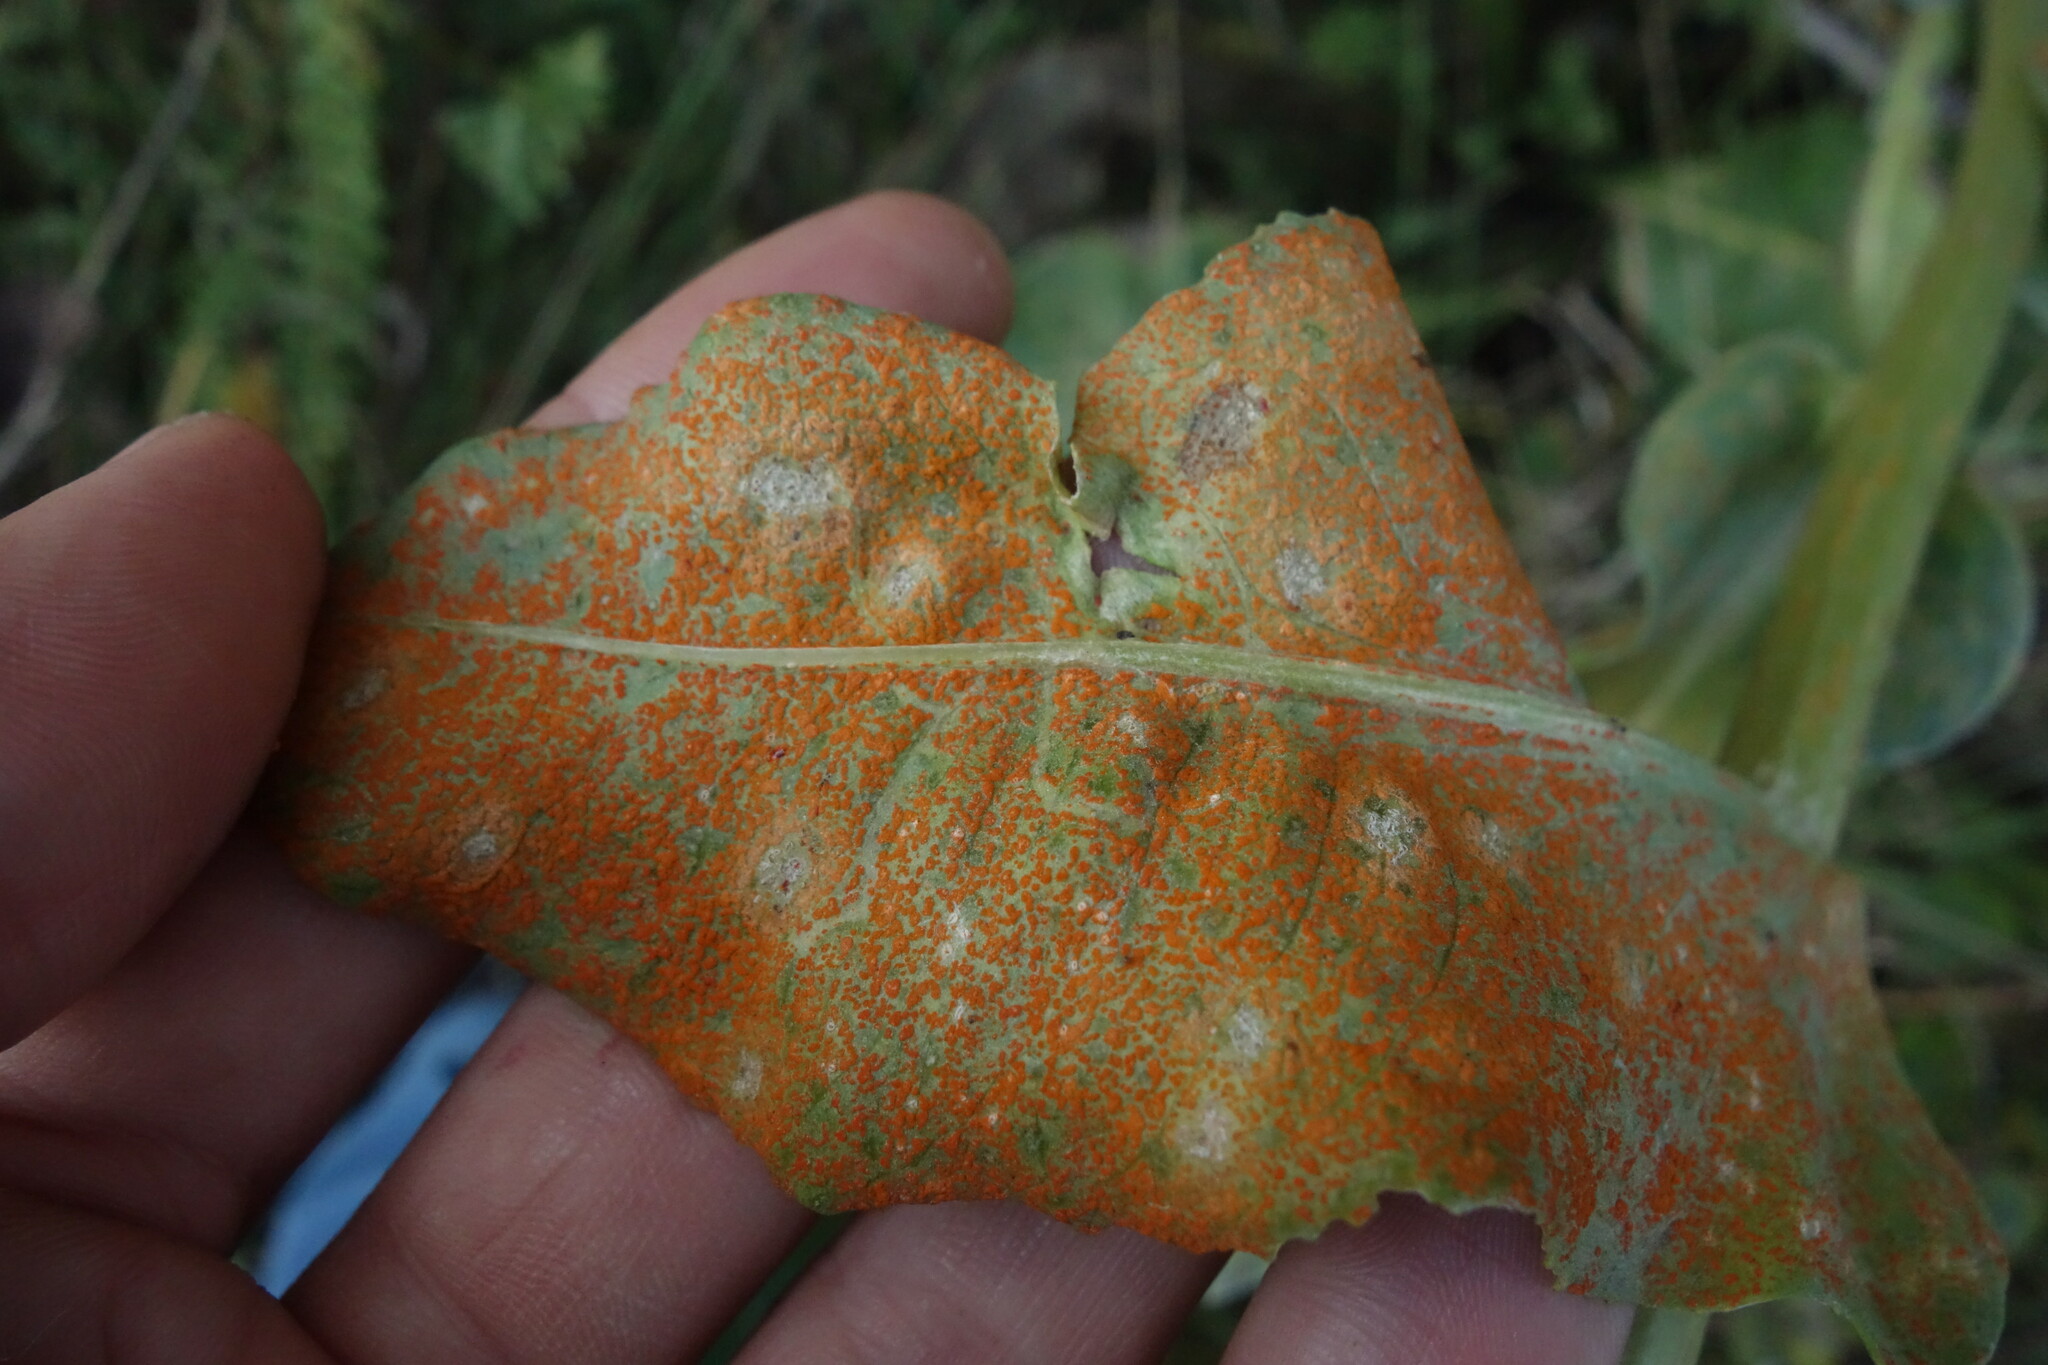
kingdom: Fungi
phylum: Basidiomycota
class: Pucciniomycetes
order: Pucciniales
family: Coleosporiaceae
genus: Coleosporium
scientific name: Coleosporium senecionis
